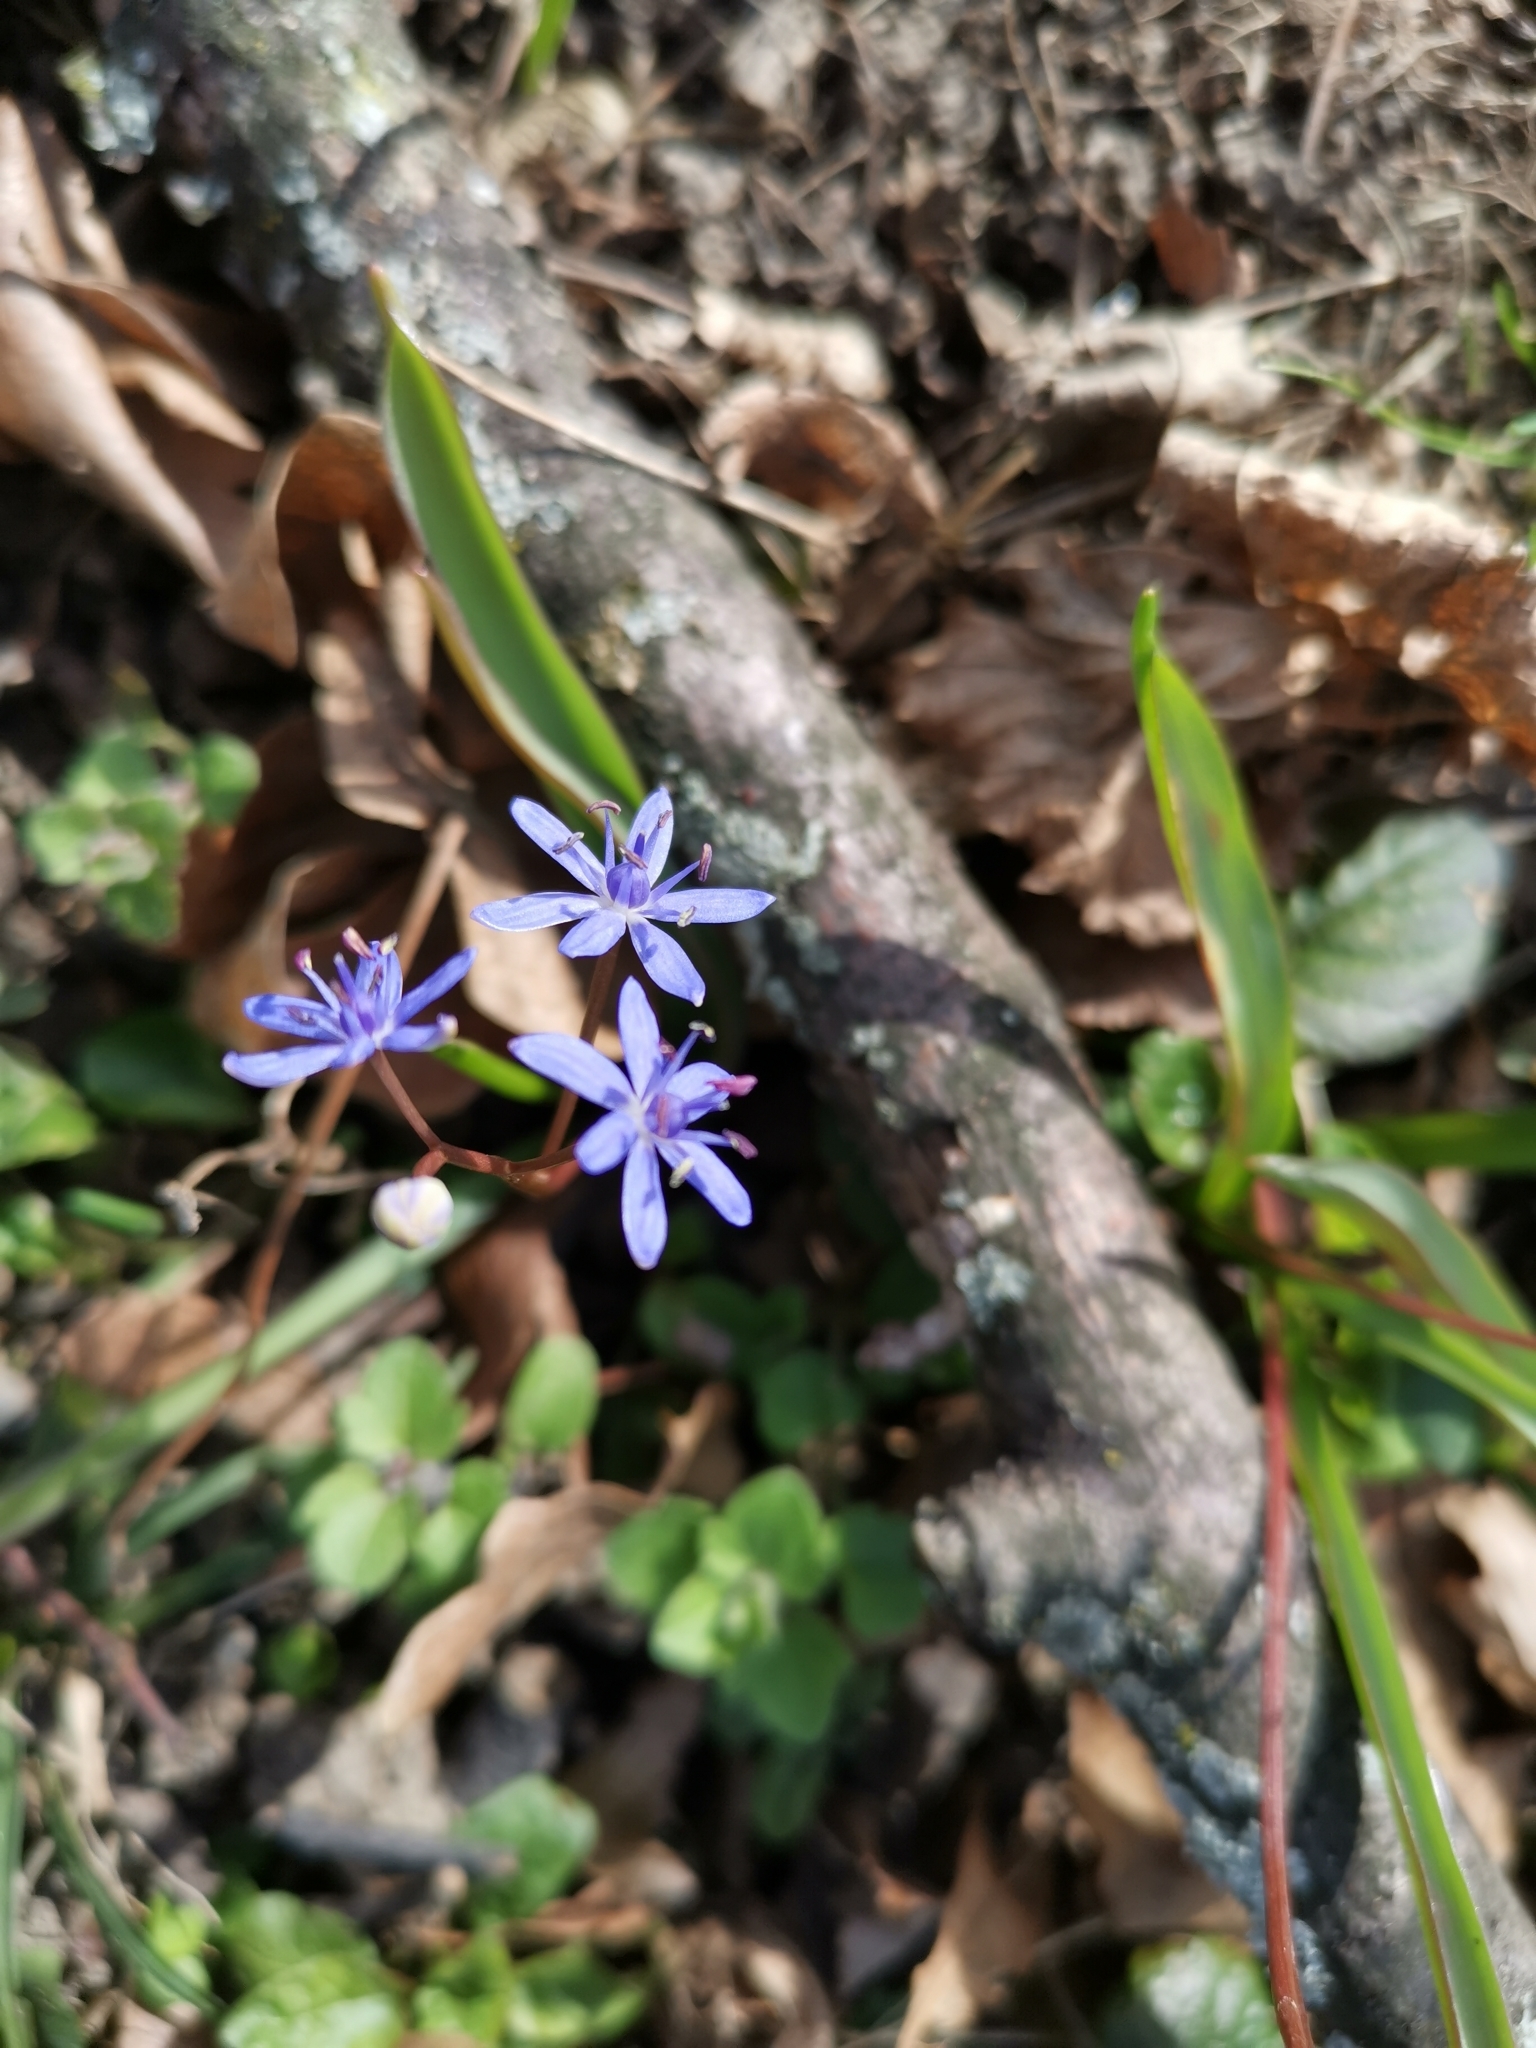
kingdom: Plantae
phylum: Tracheophyta
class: Liliopsida
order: Asparagales
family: Asparagaceae
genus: Scilla
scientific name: Scilla vindobonensis
